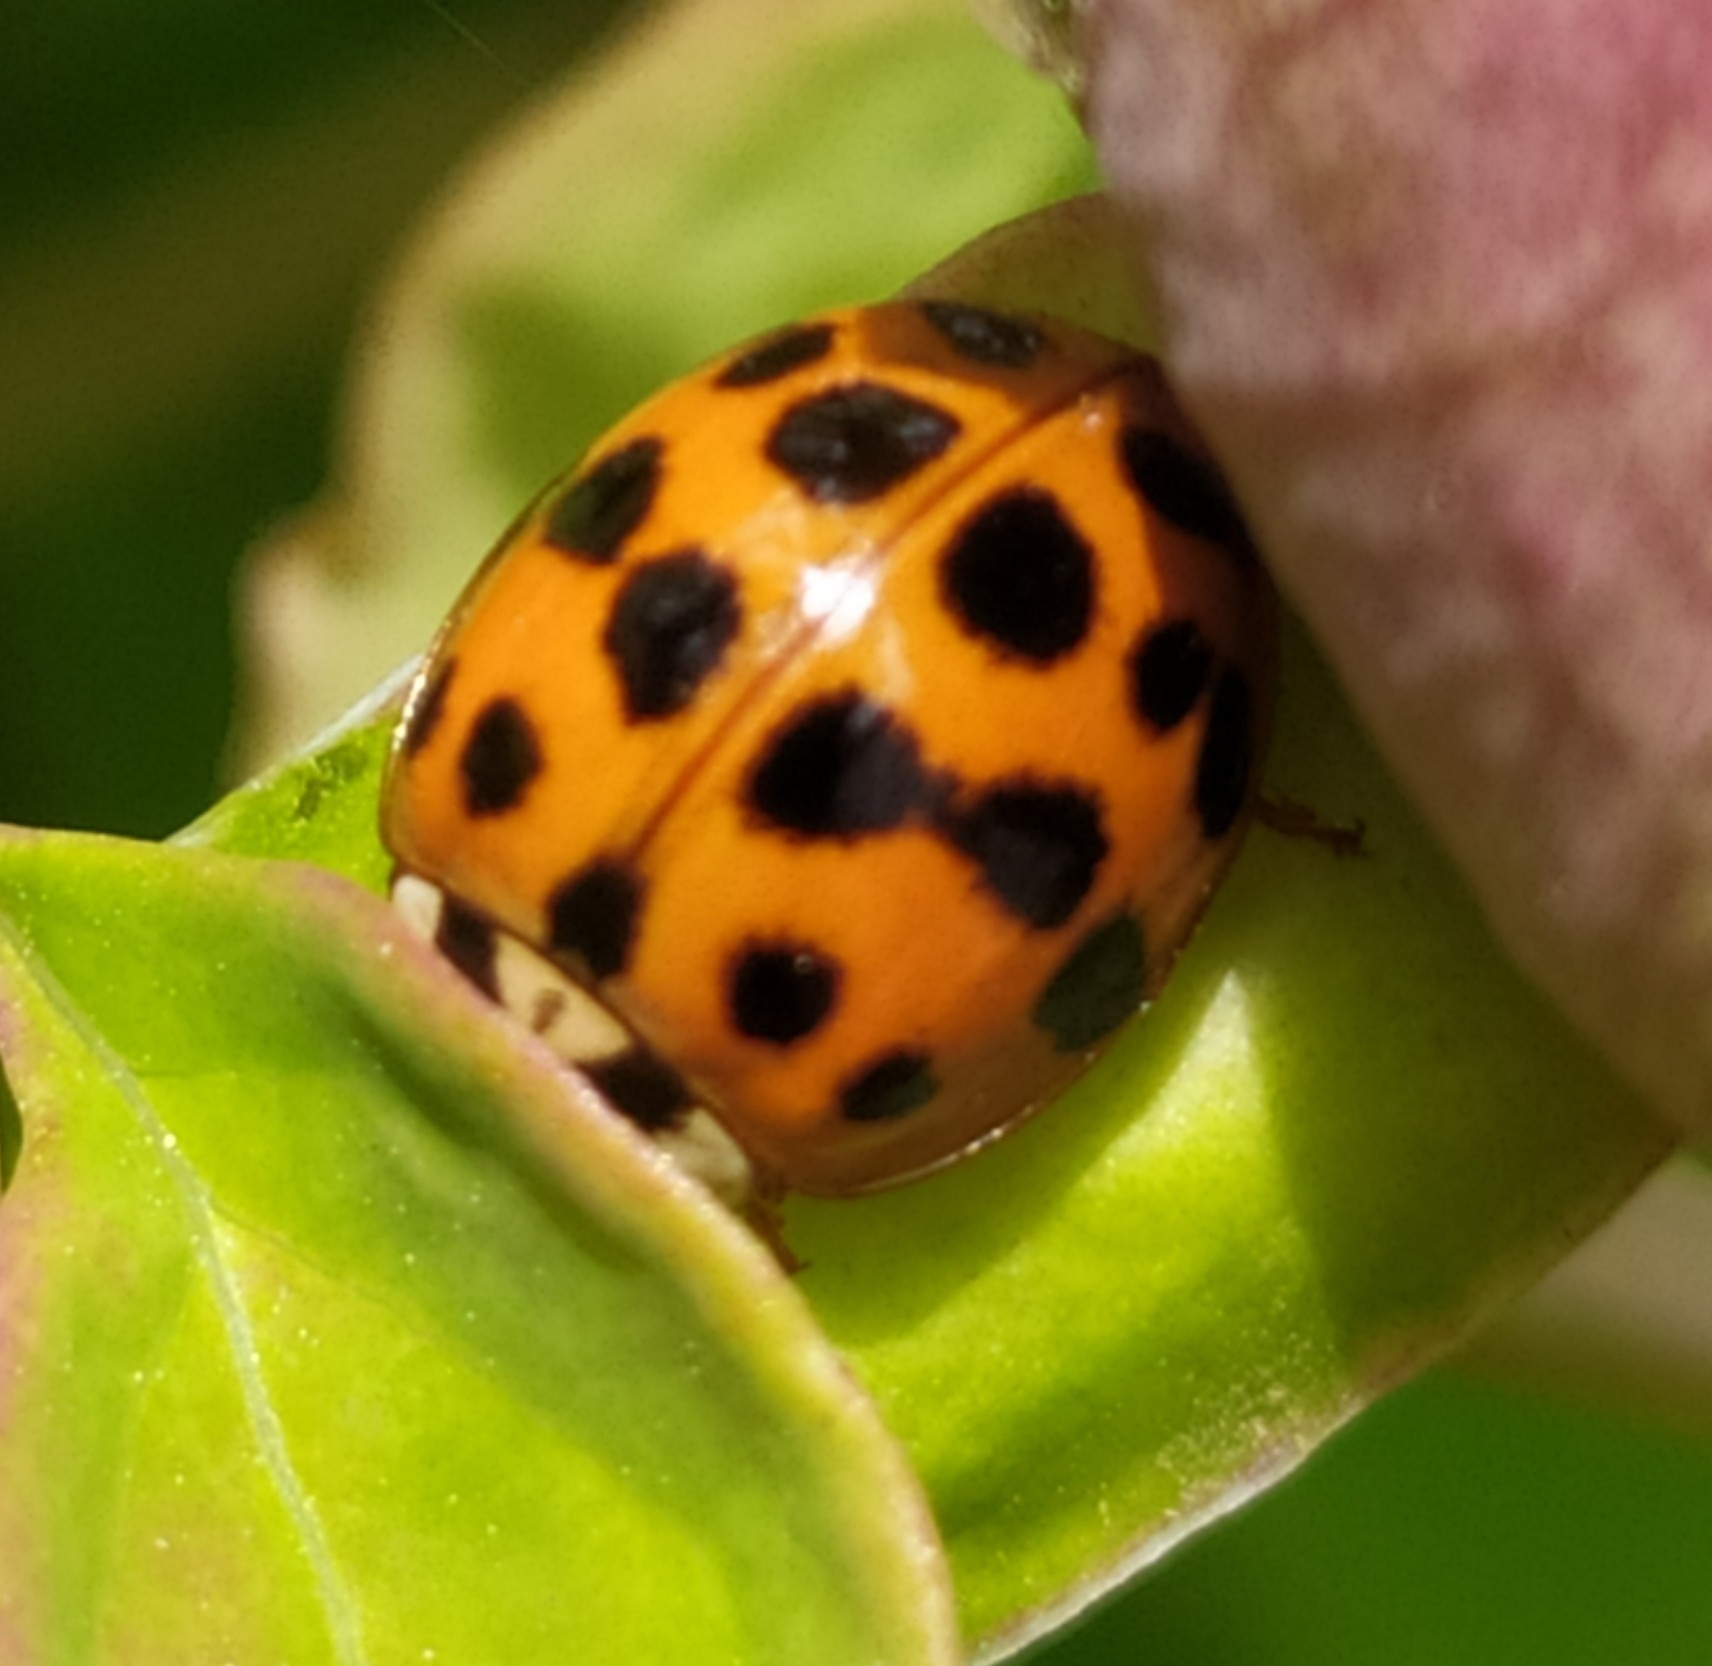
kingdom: Animalia
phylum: Arthropoda
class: Insecta
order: Coleoptera
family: Coccinellidae
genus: Harmonia
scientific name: Harmonia axyridis
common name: Harlequin ladybird
